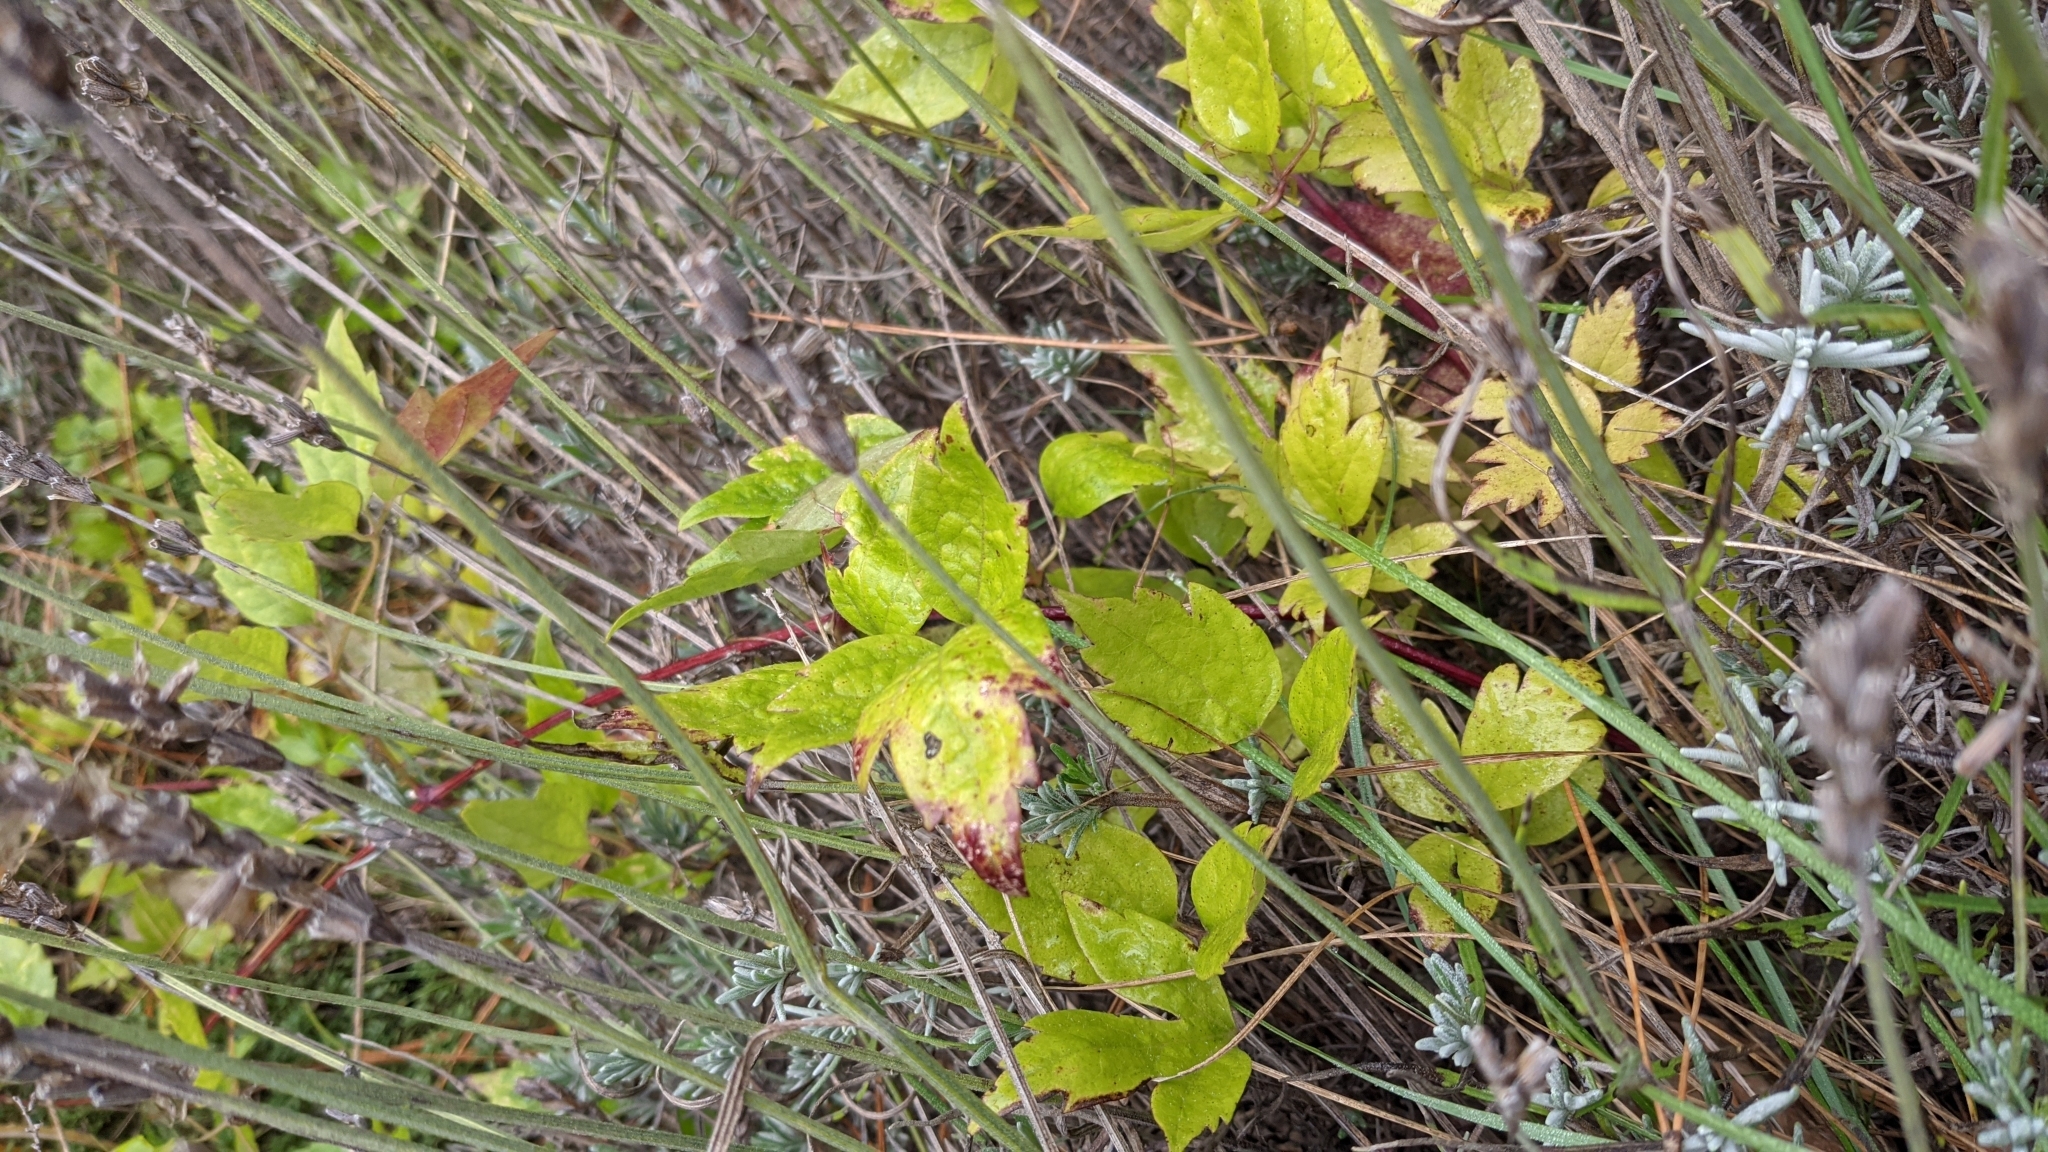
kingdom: Plantae
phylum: Tracheophyta
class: Magnoliopsida
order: Ranunculales
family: Ranunculaceae
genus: Clematis
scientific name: Clematis vitalba
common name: Evergreen clematis
